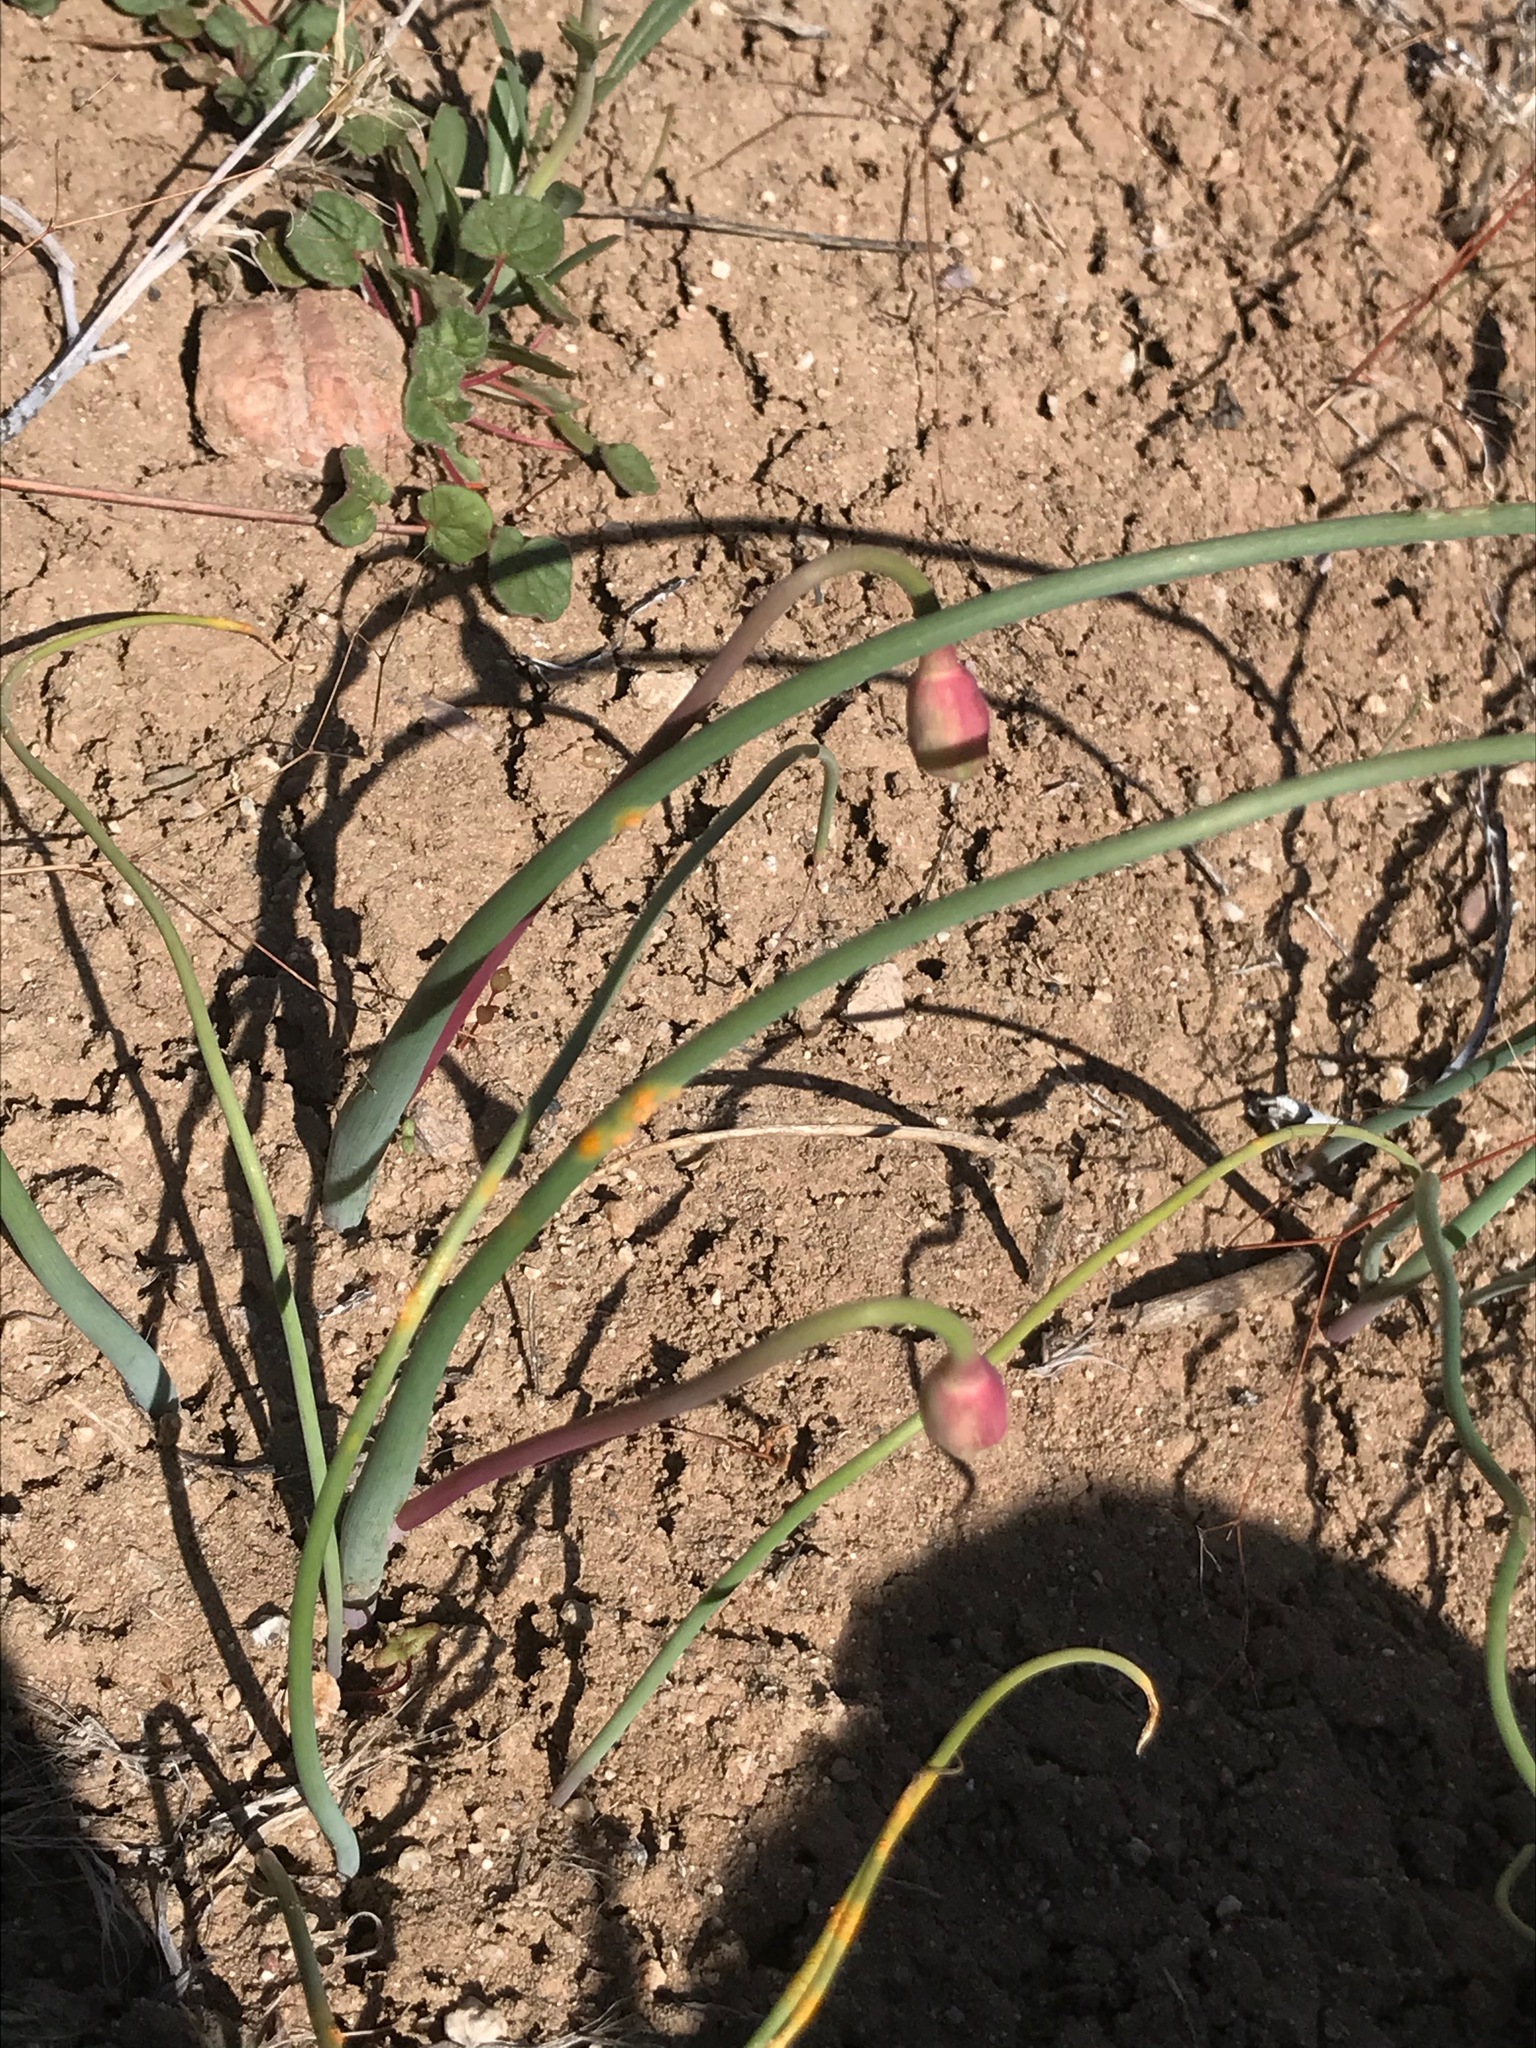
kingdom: Plantae
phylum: Tracheophyta
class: Liliopsida
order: Asparagales
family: Amaryllidaceae
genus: Allium
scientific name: Allium howellii
